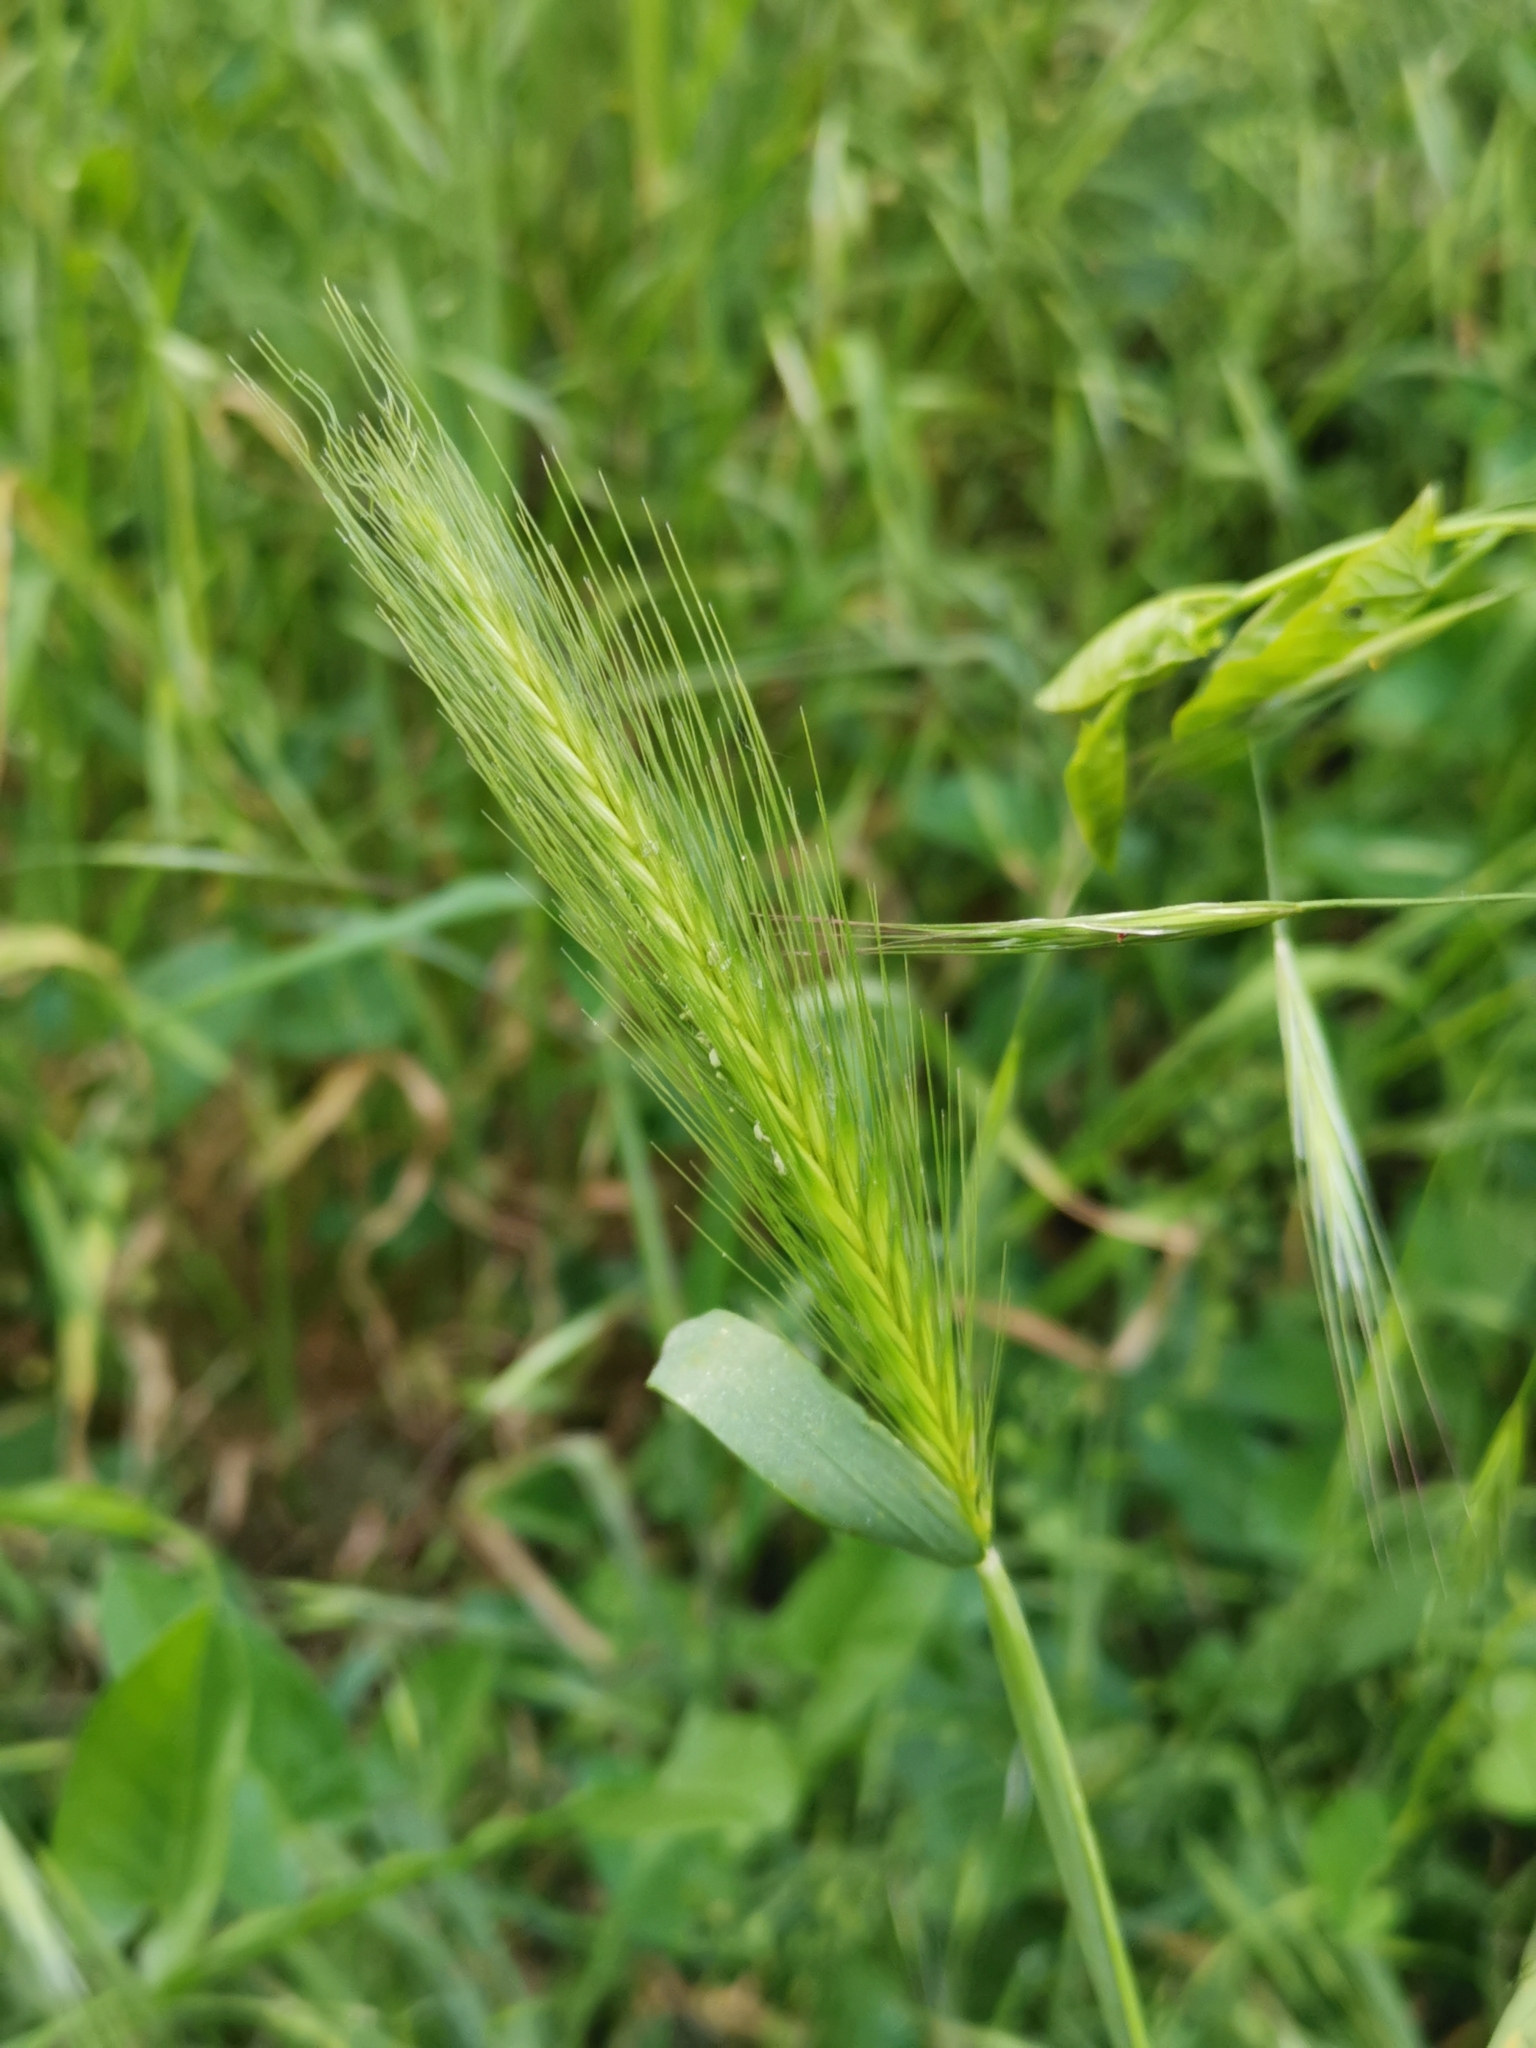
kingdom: Plantae
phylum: Tracheophyta
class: Liliopsida
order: Poales
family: Poaceae
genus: Hordeum
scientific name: Hordeum murinum
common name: Wall barley
